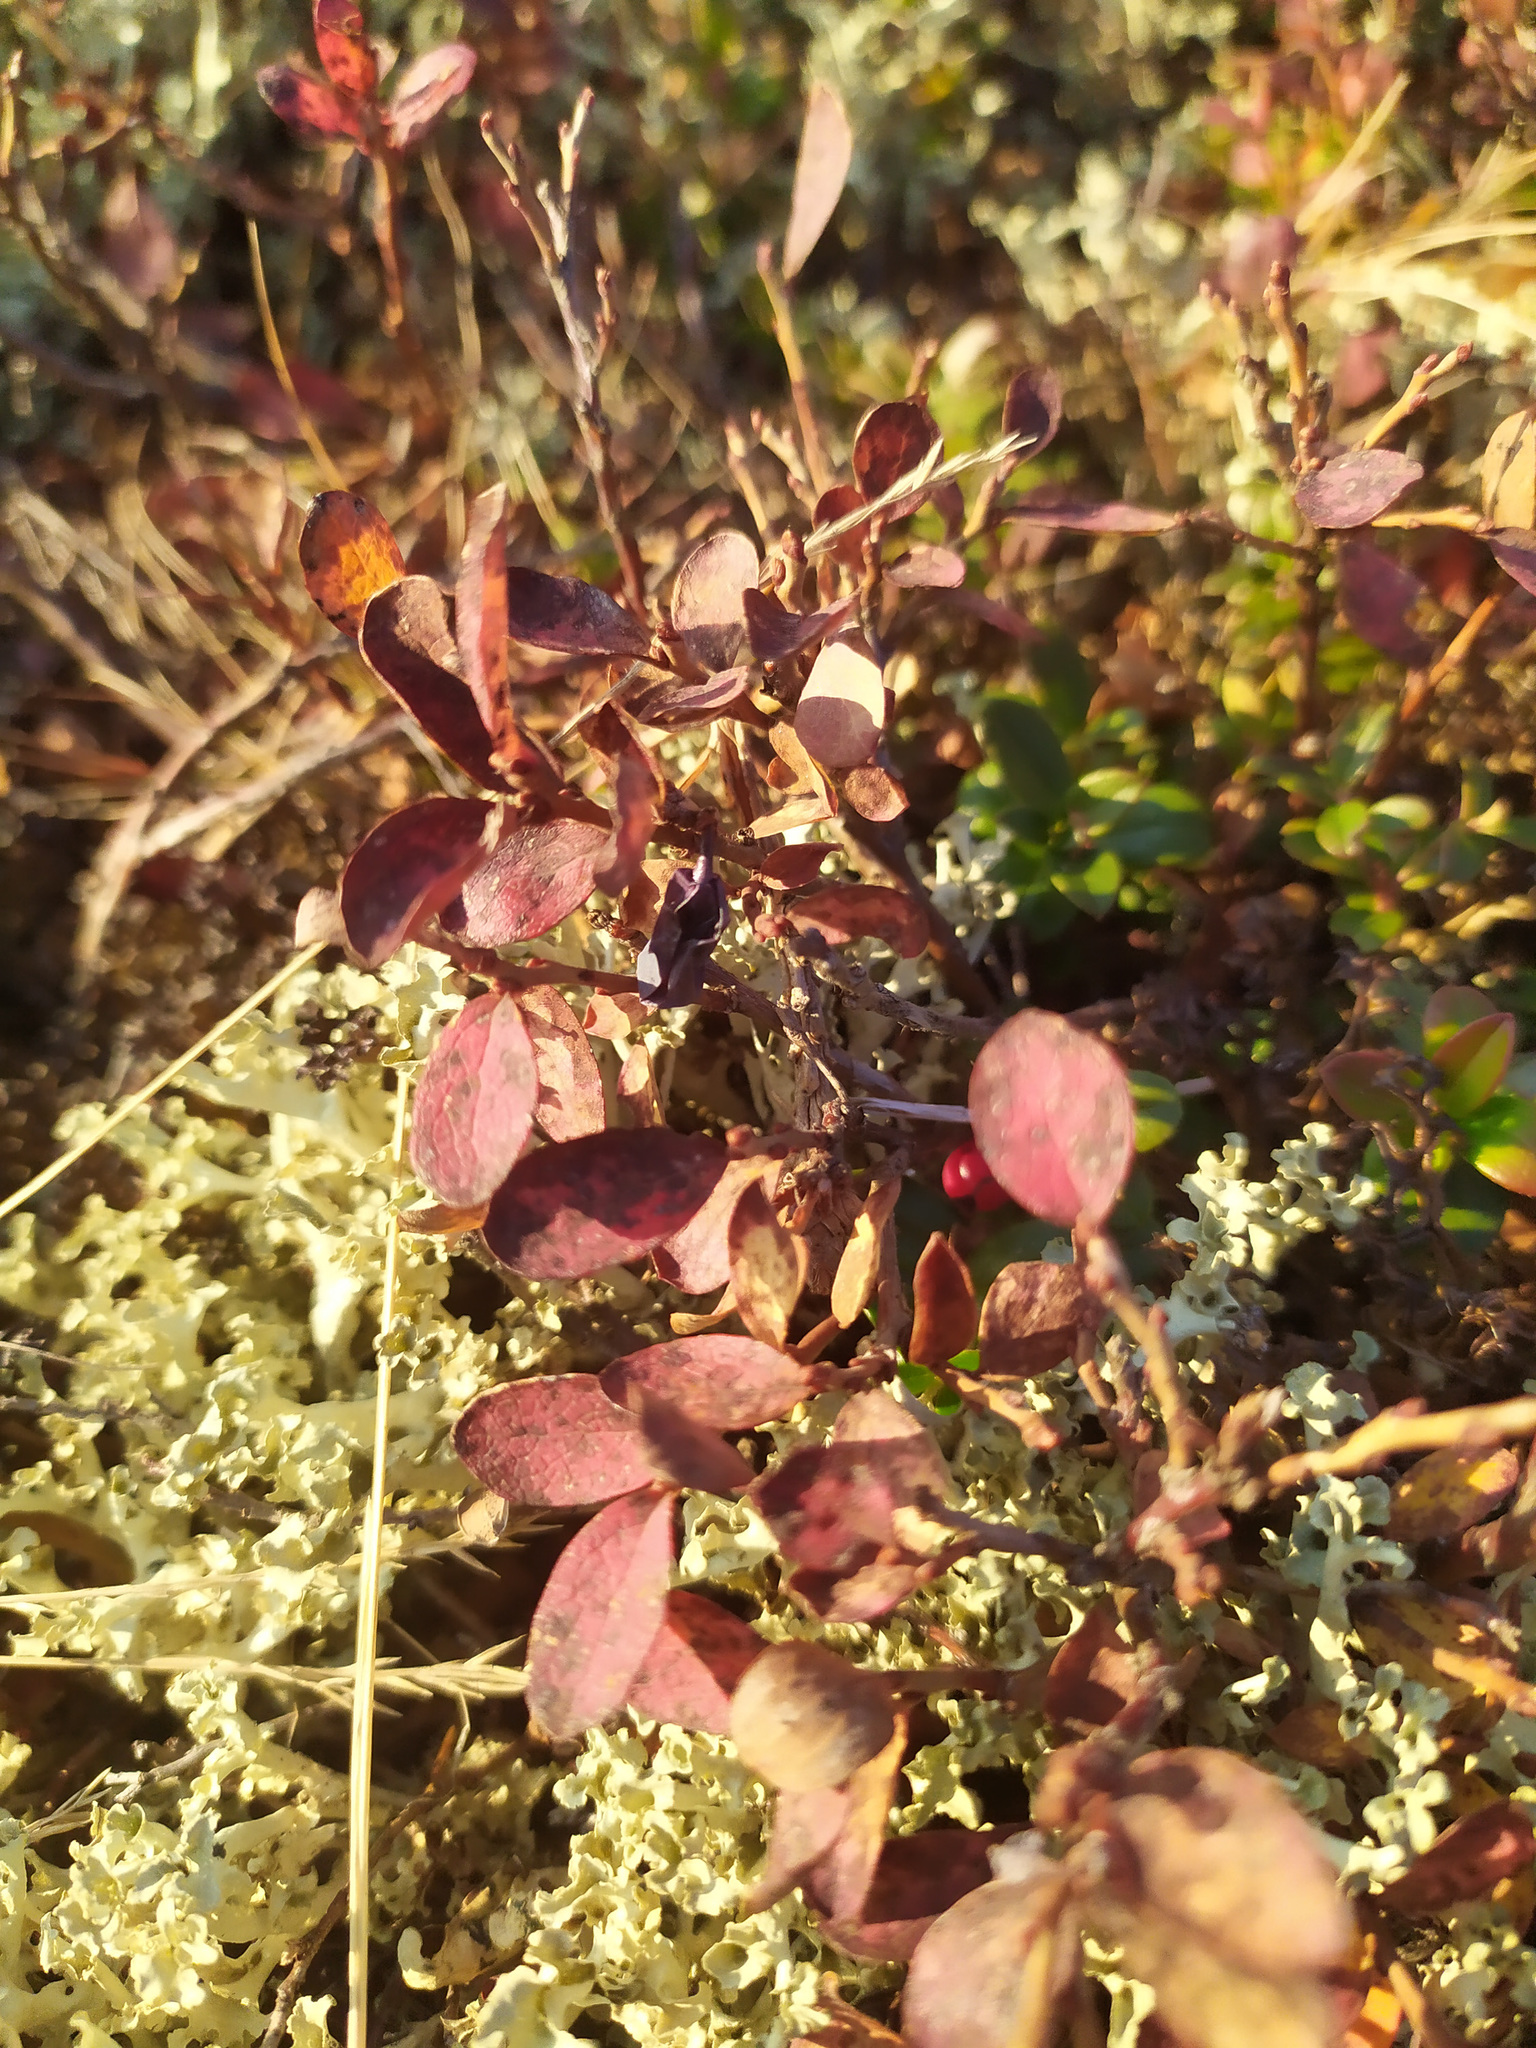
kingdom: Plantae
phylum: Tracheophyta
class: Magnoliopsida
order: Ericales
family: Ericaceae
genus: Vaccinium
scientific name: Vaccinium uliginosum
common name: Bog bilberry
